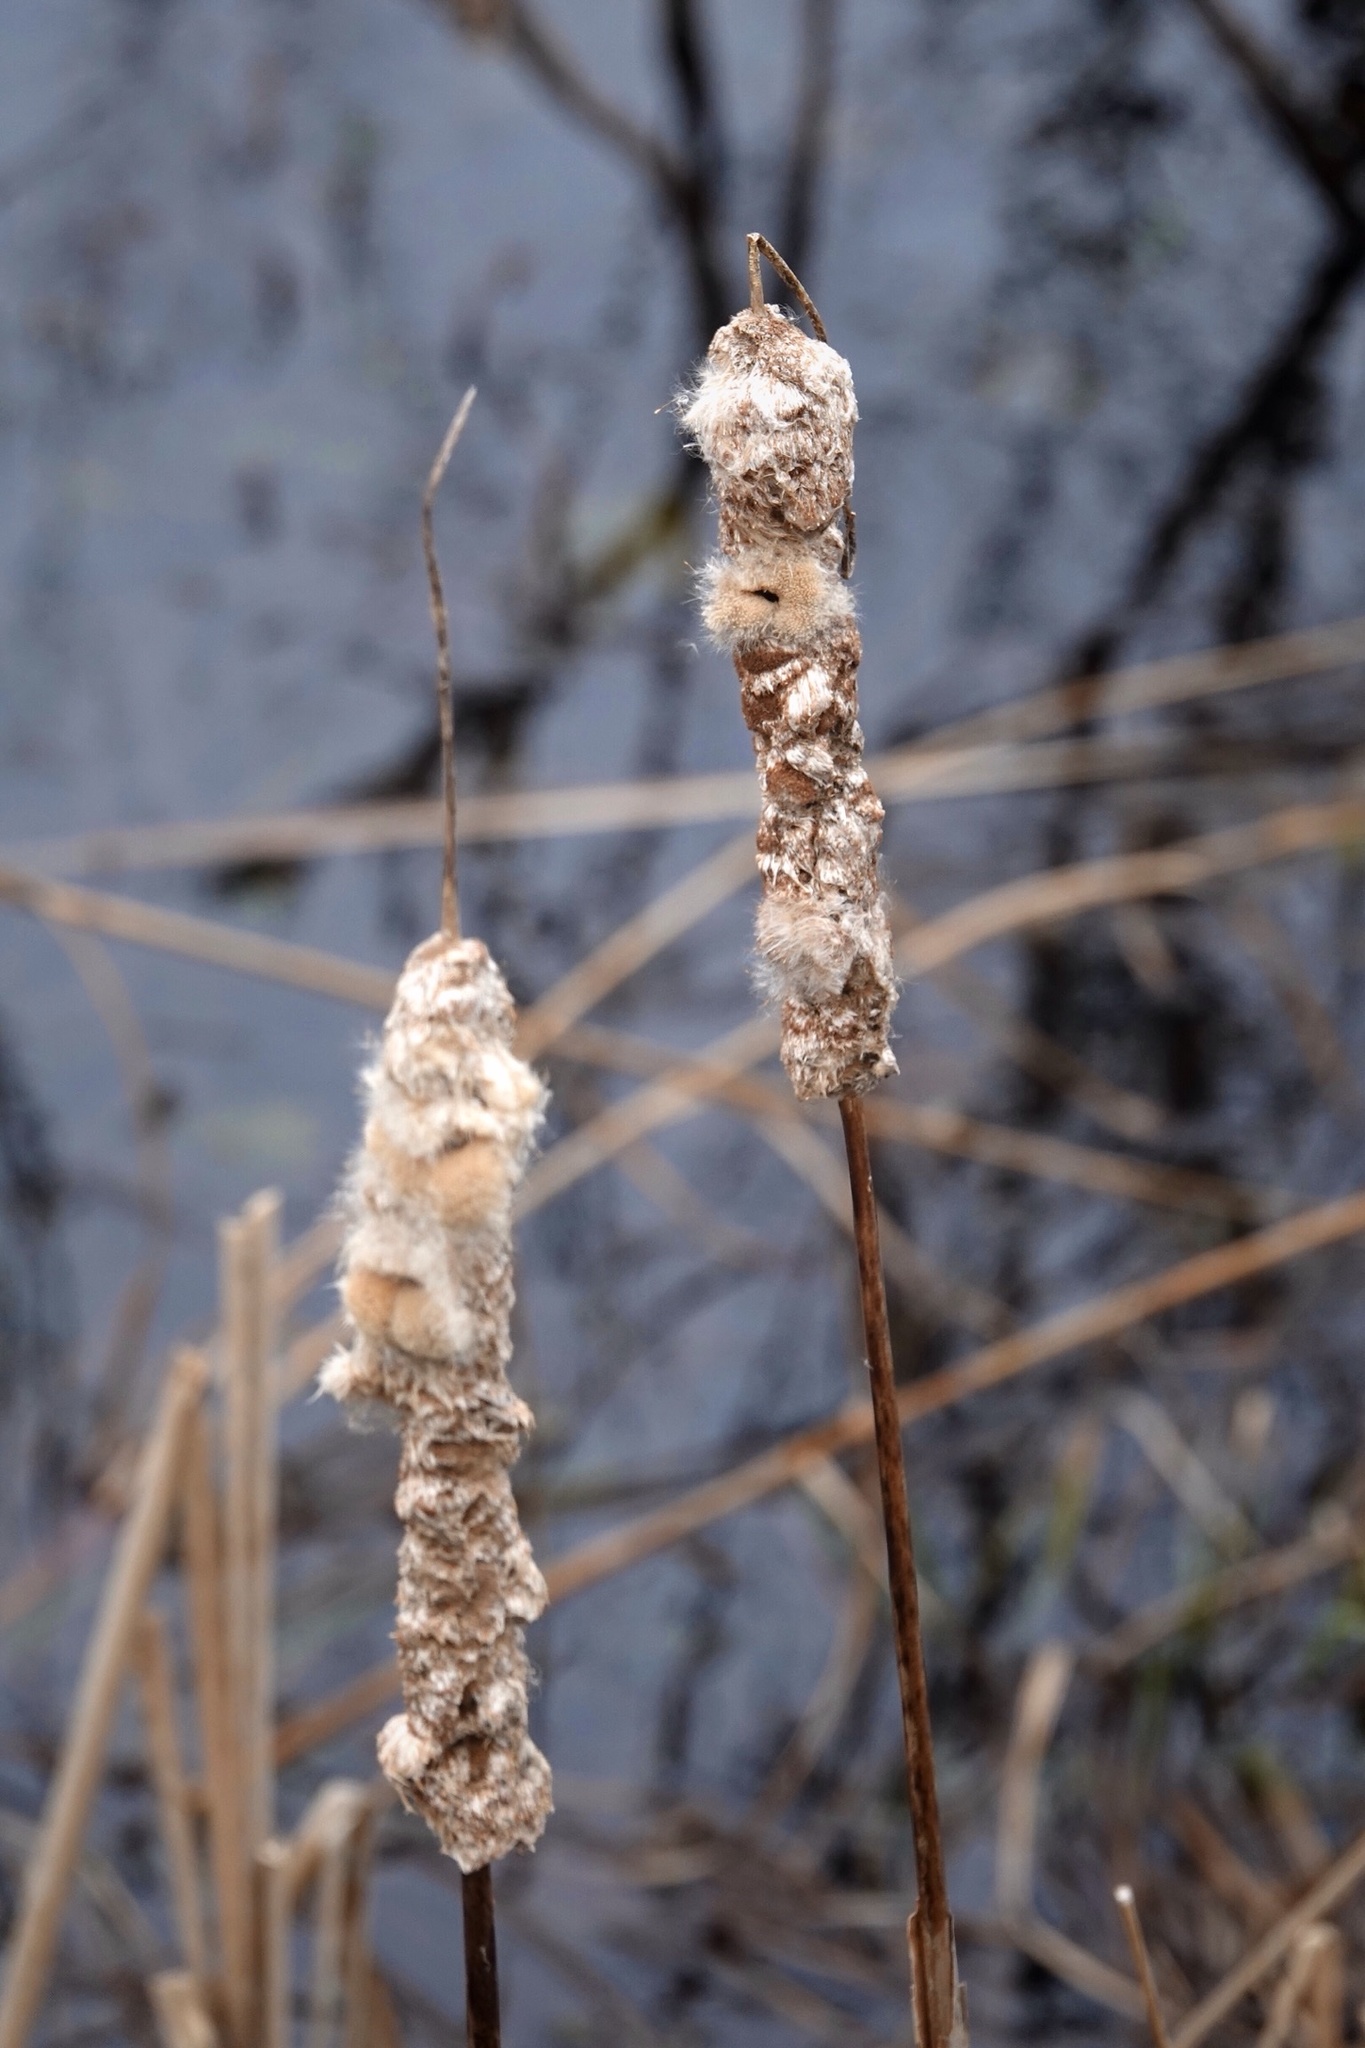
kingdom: Plantae
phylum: Tracheophyta
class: Liliopsida
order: Poales
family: Typhaceae
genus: Typha
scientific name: Typha
